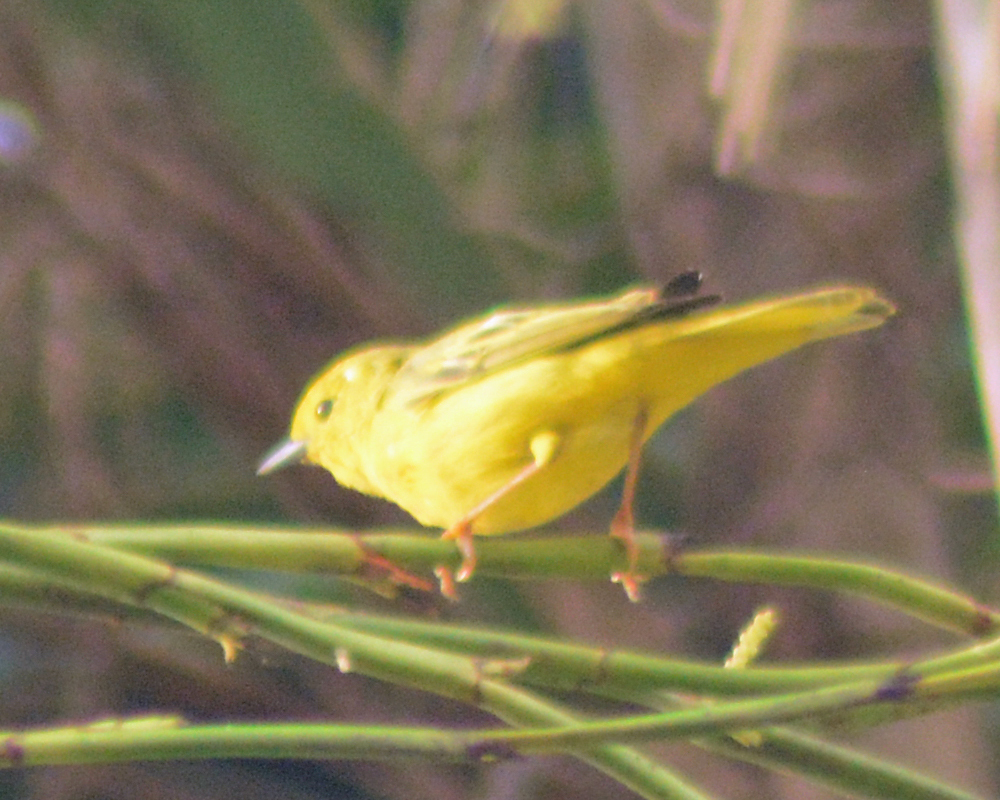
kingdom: Animalia
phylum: Chordata
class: Aves
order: Passeriformes
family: Parulidae
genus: Setophaga
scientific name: Setophaga petechia
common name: Yellow warbler
